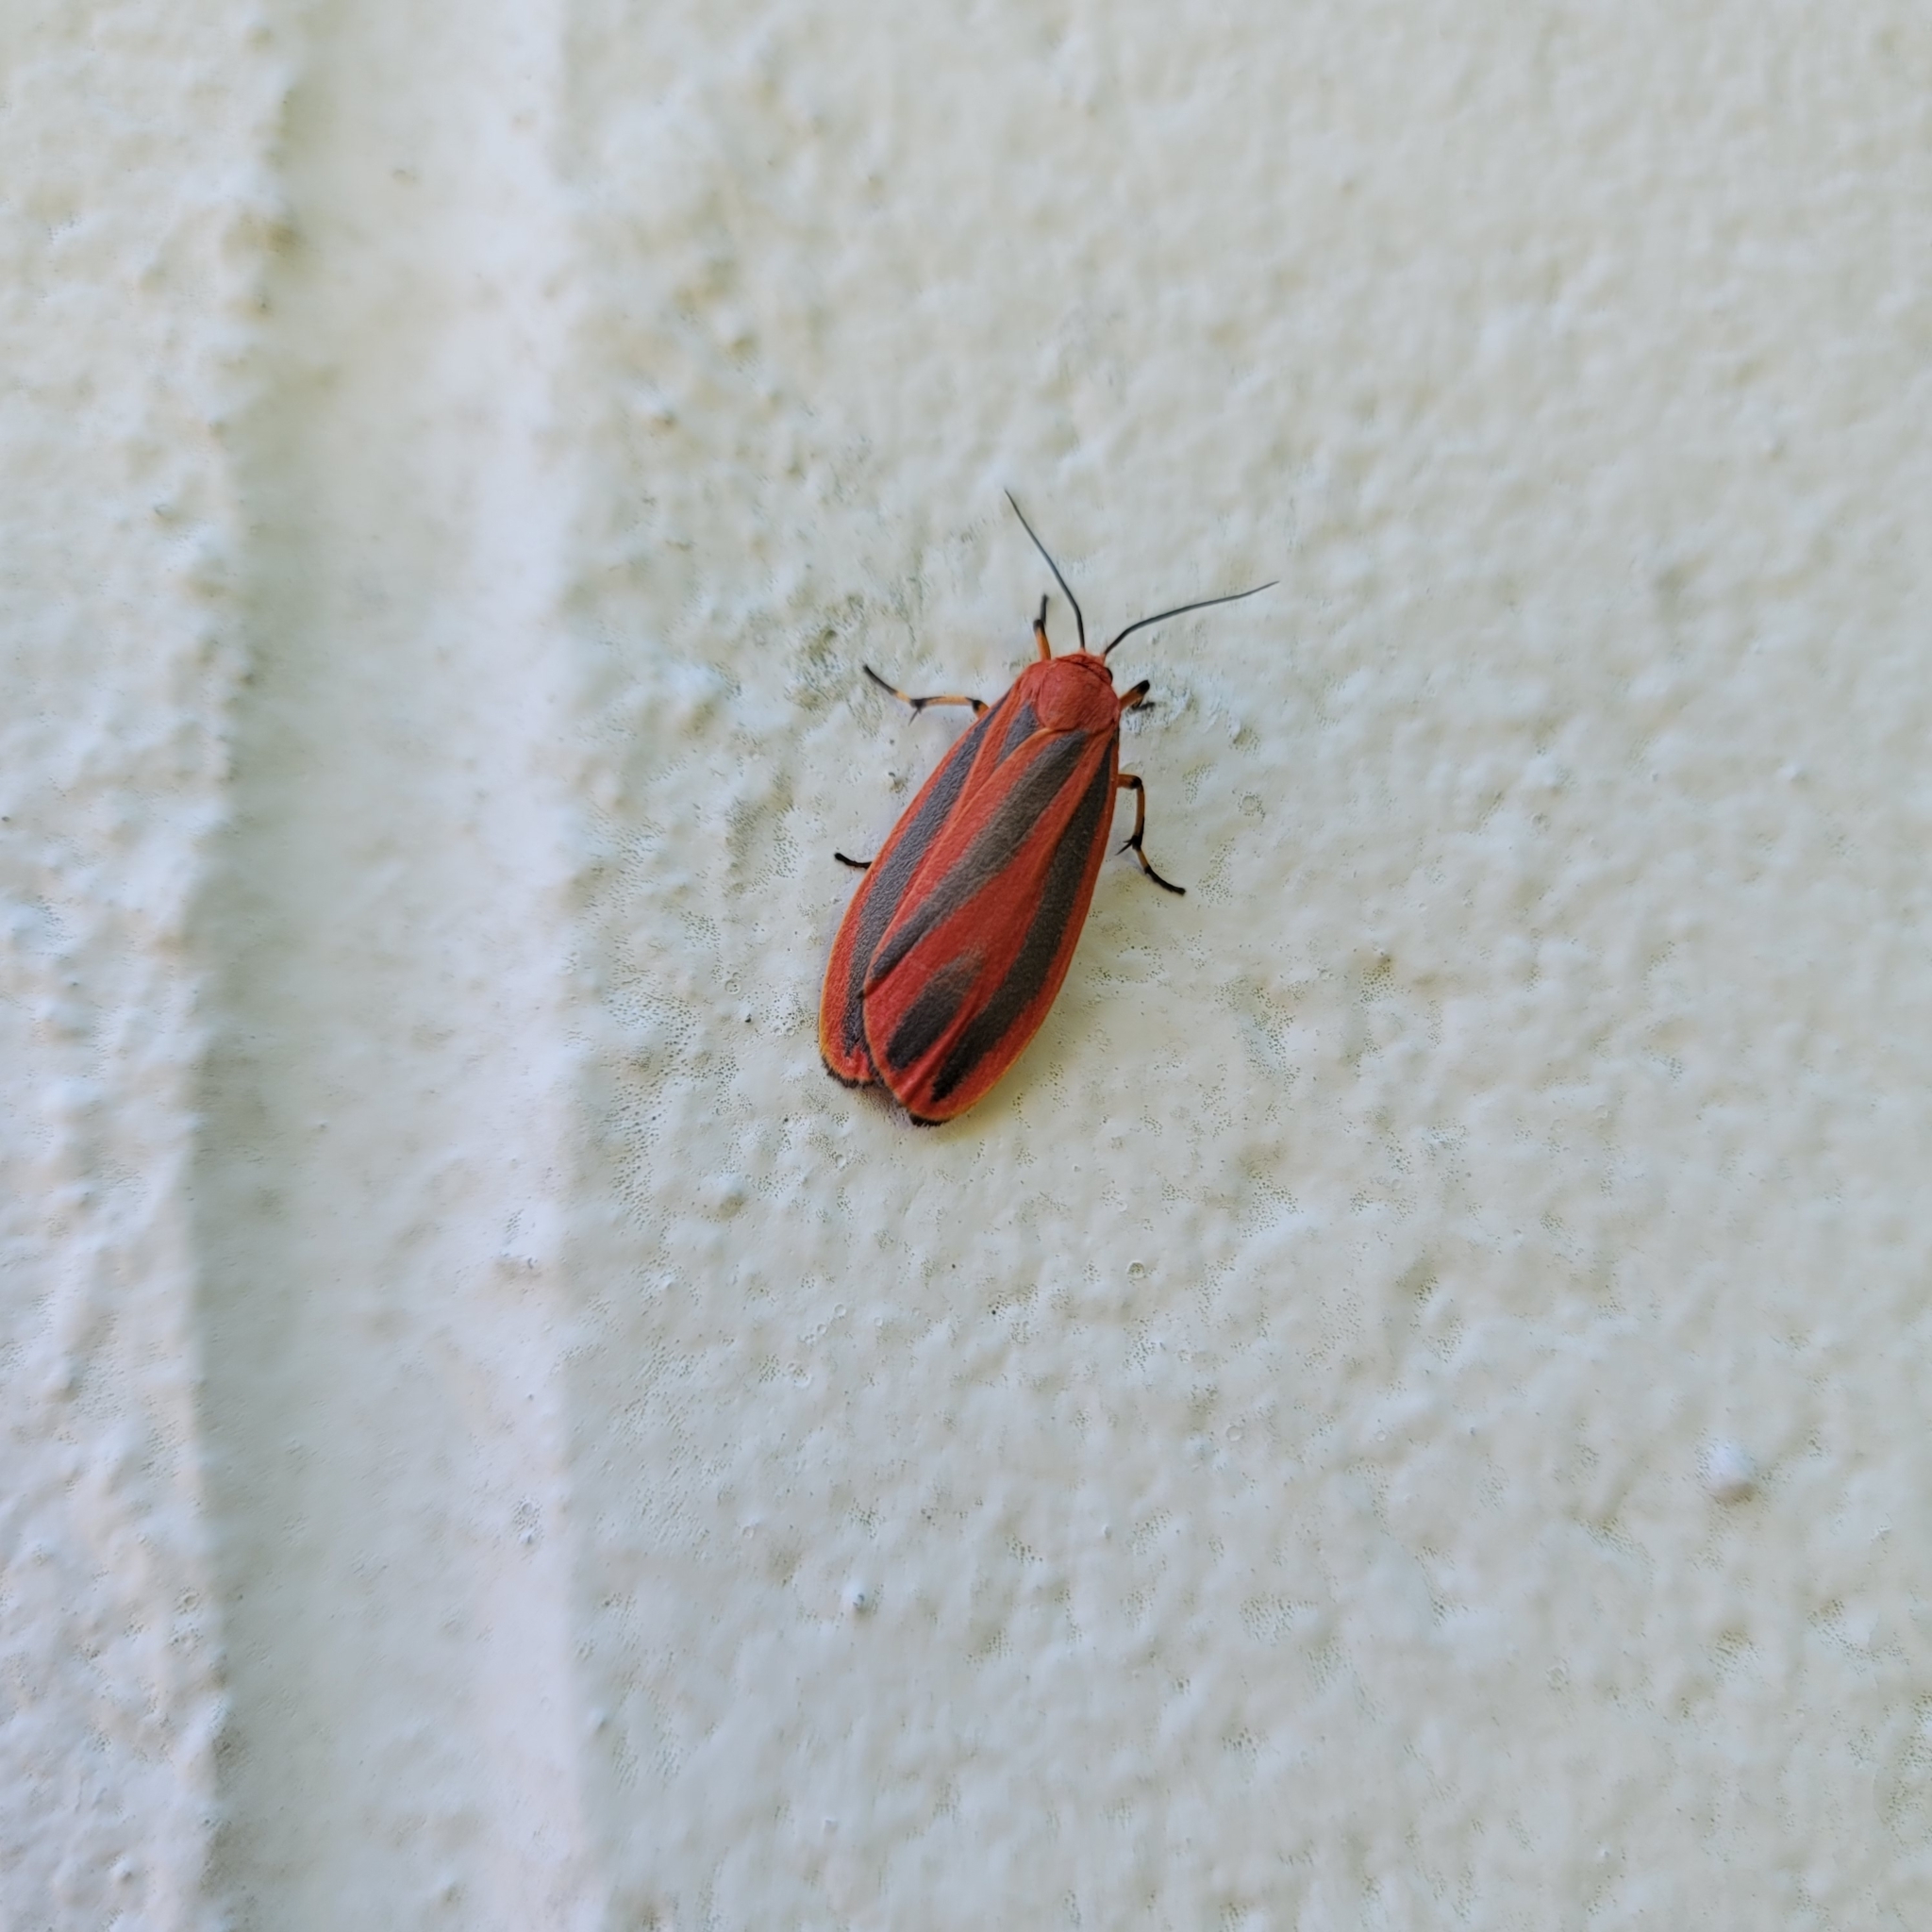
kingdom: Animalia
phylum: Arthropoda
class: Insecta
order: Lepidoptera
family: Erebidae
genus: Hypoprepia
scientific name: Hypoprepia miniata
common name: Scarlet-winged lichen moth
